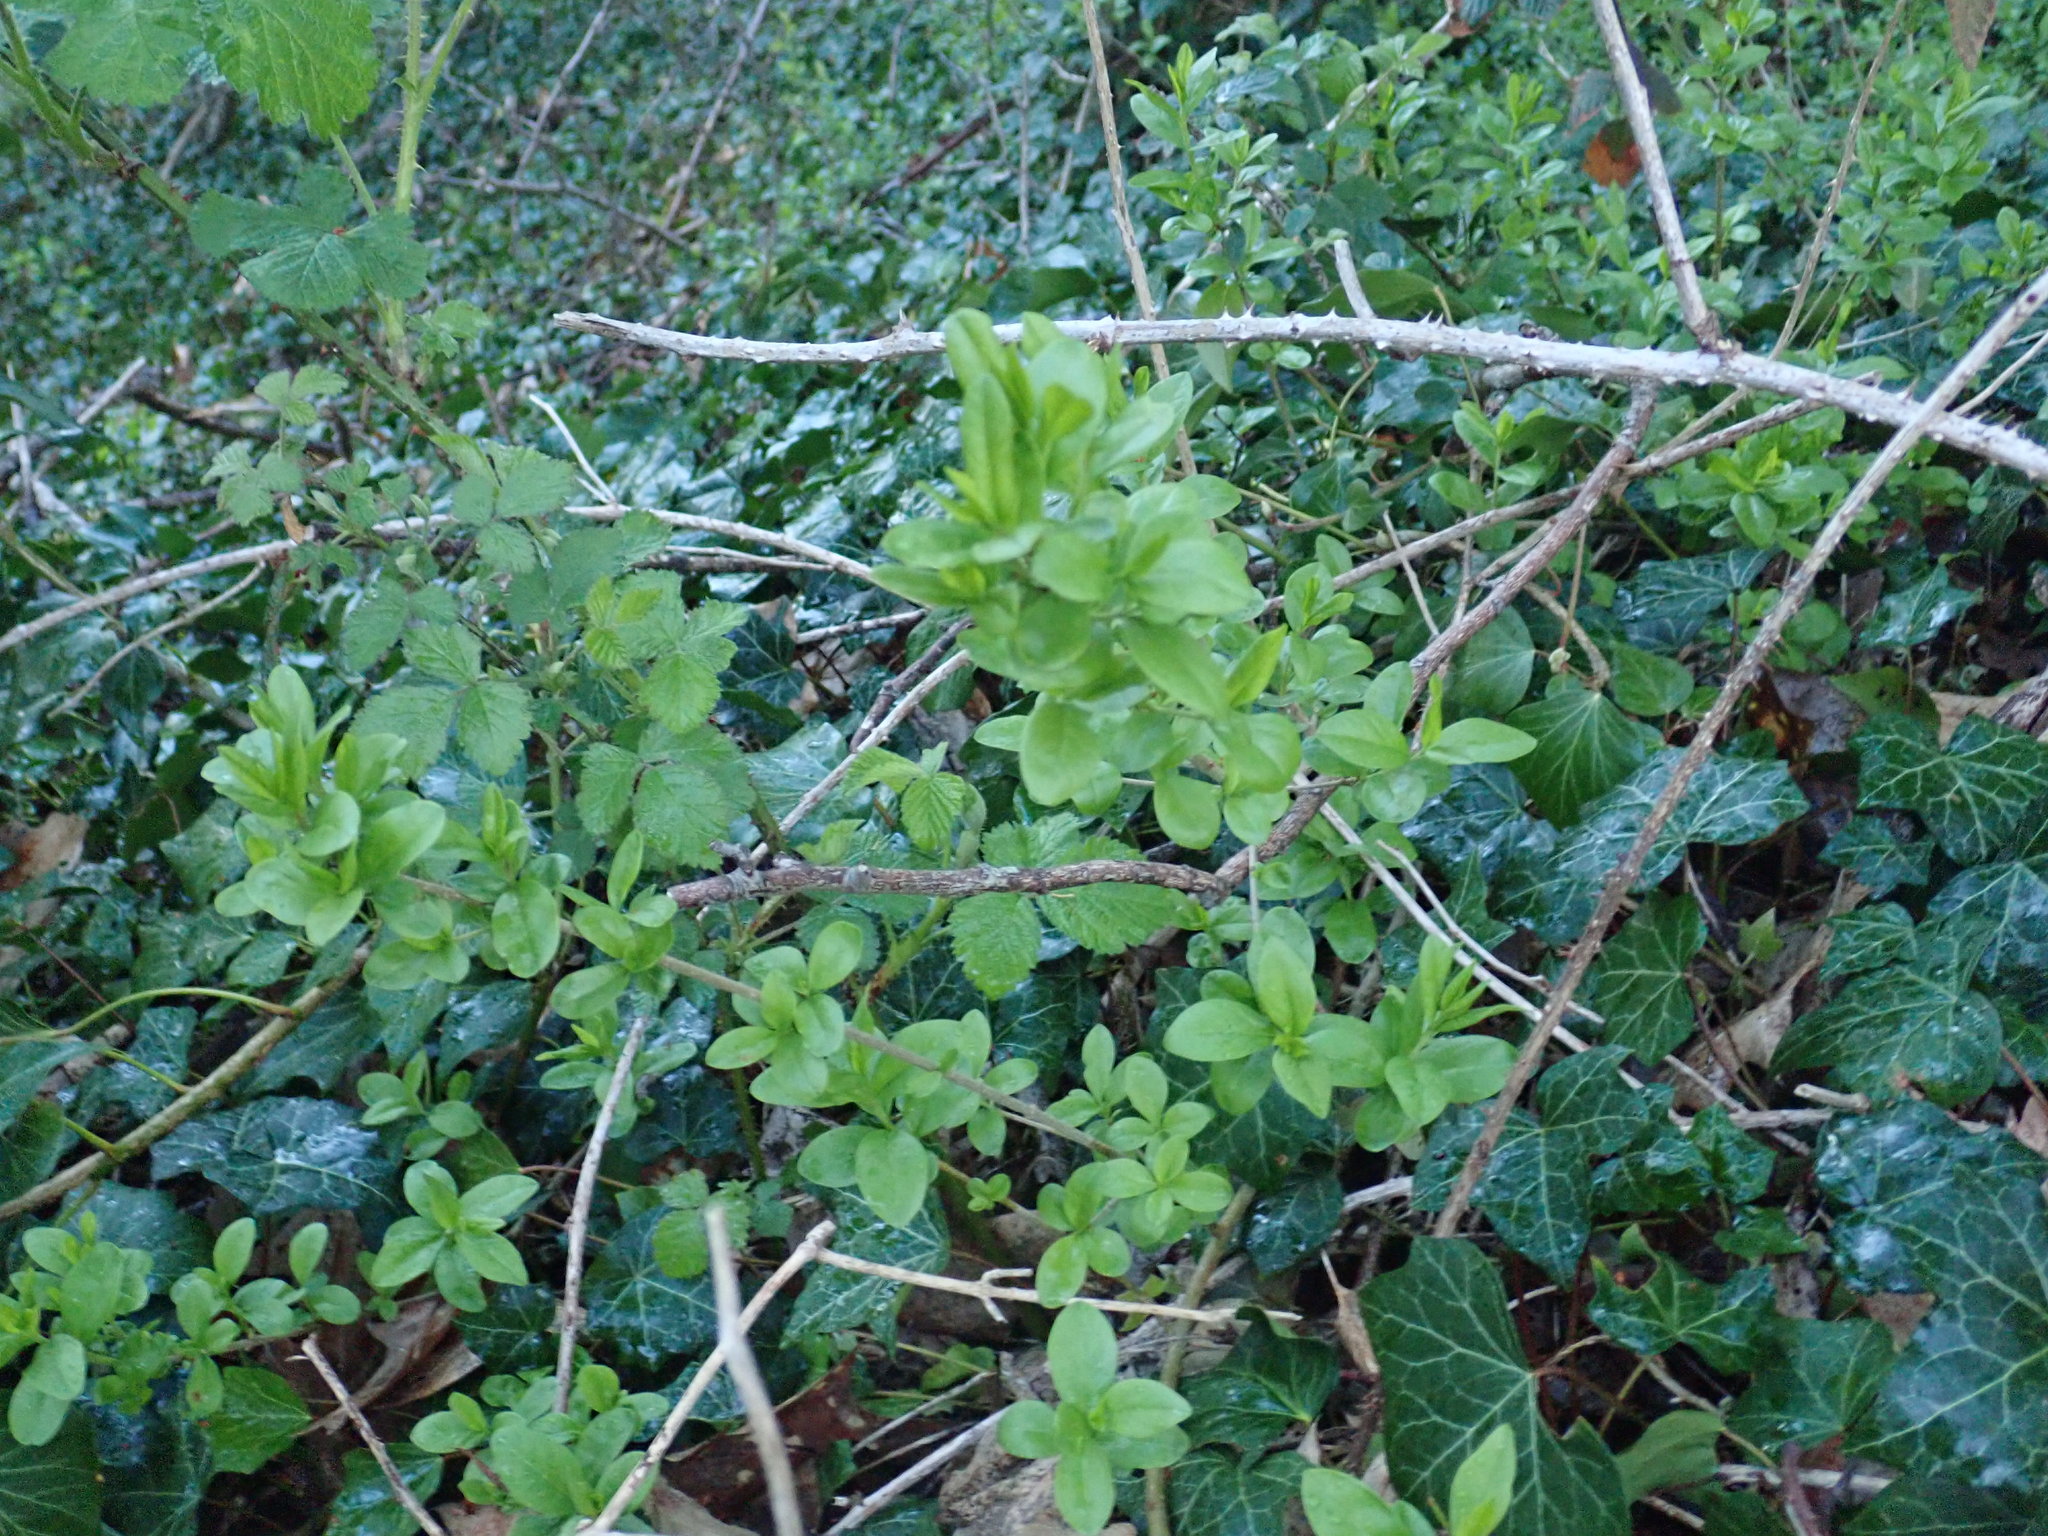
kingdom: Plantae
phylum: Tracheophyta
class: Magnoliopsida
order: Lamiales
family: Oleaceae
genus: Ligustrum
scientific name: Ligustrum ovalifolium
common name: California privet
